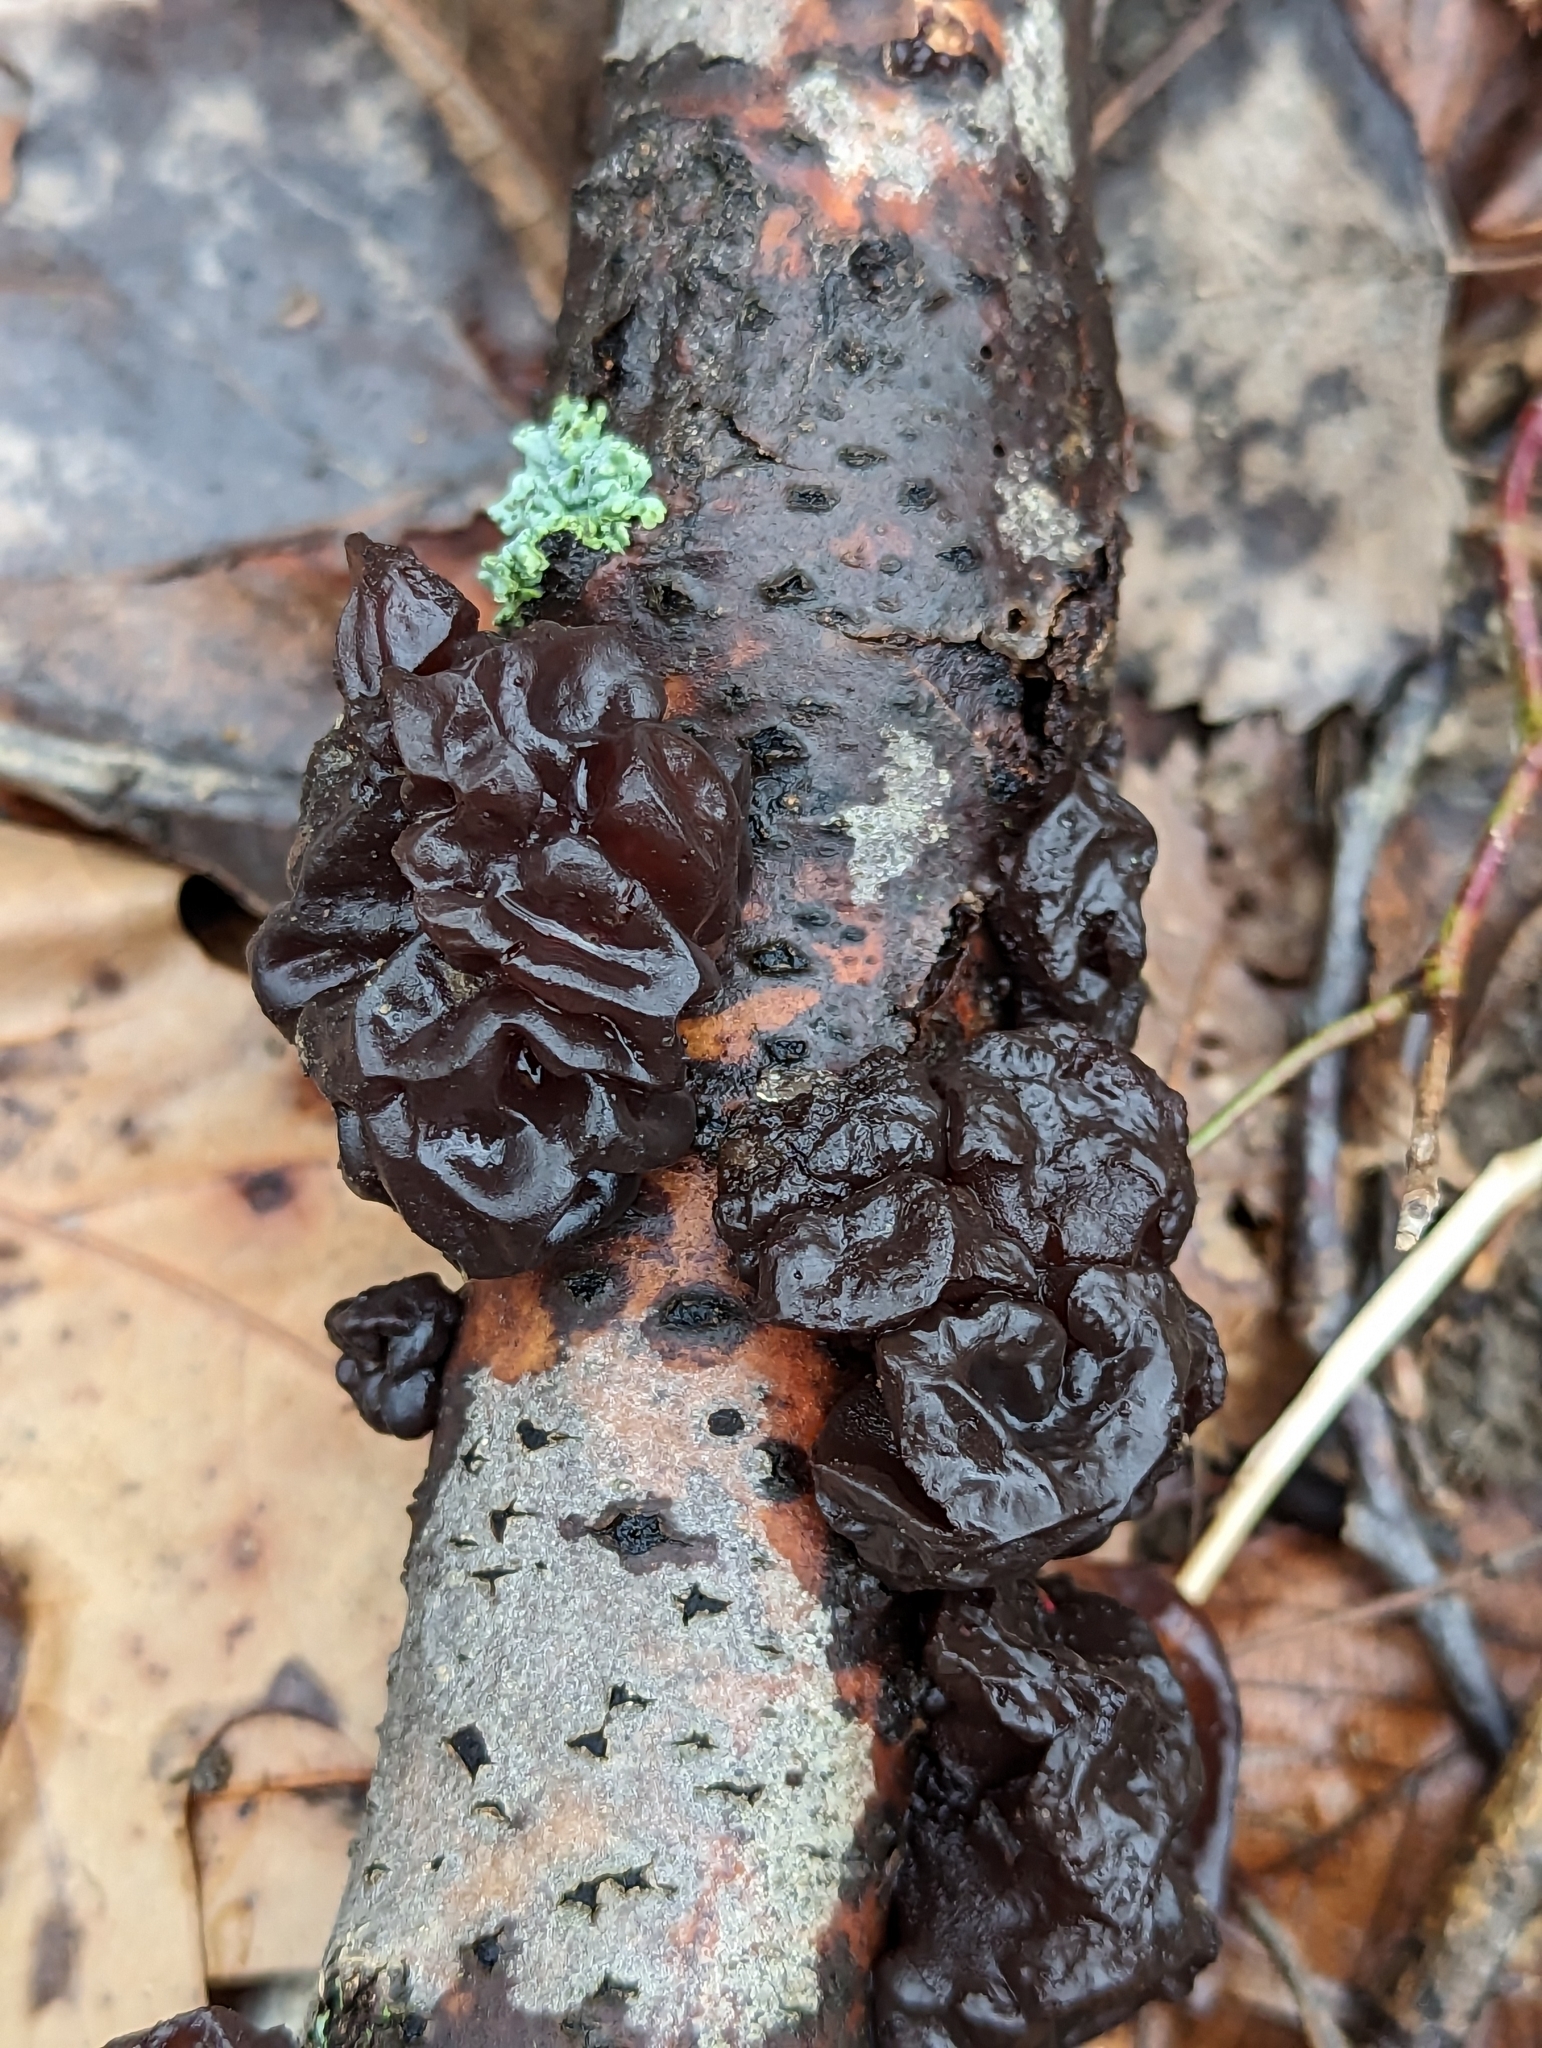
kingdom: Fungi
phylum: Basidiomycota
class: Agaricomycetes
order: Auriculariales
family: Auriculariaceae
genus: Exidia
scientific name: Exidia
